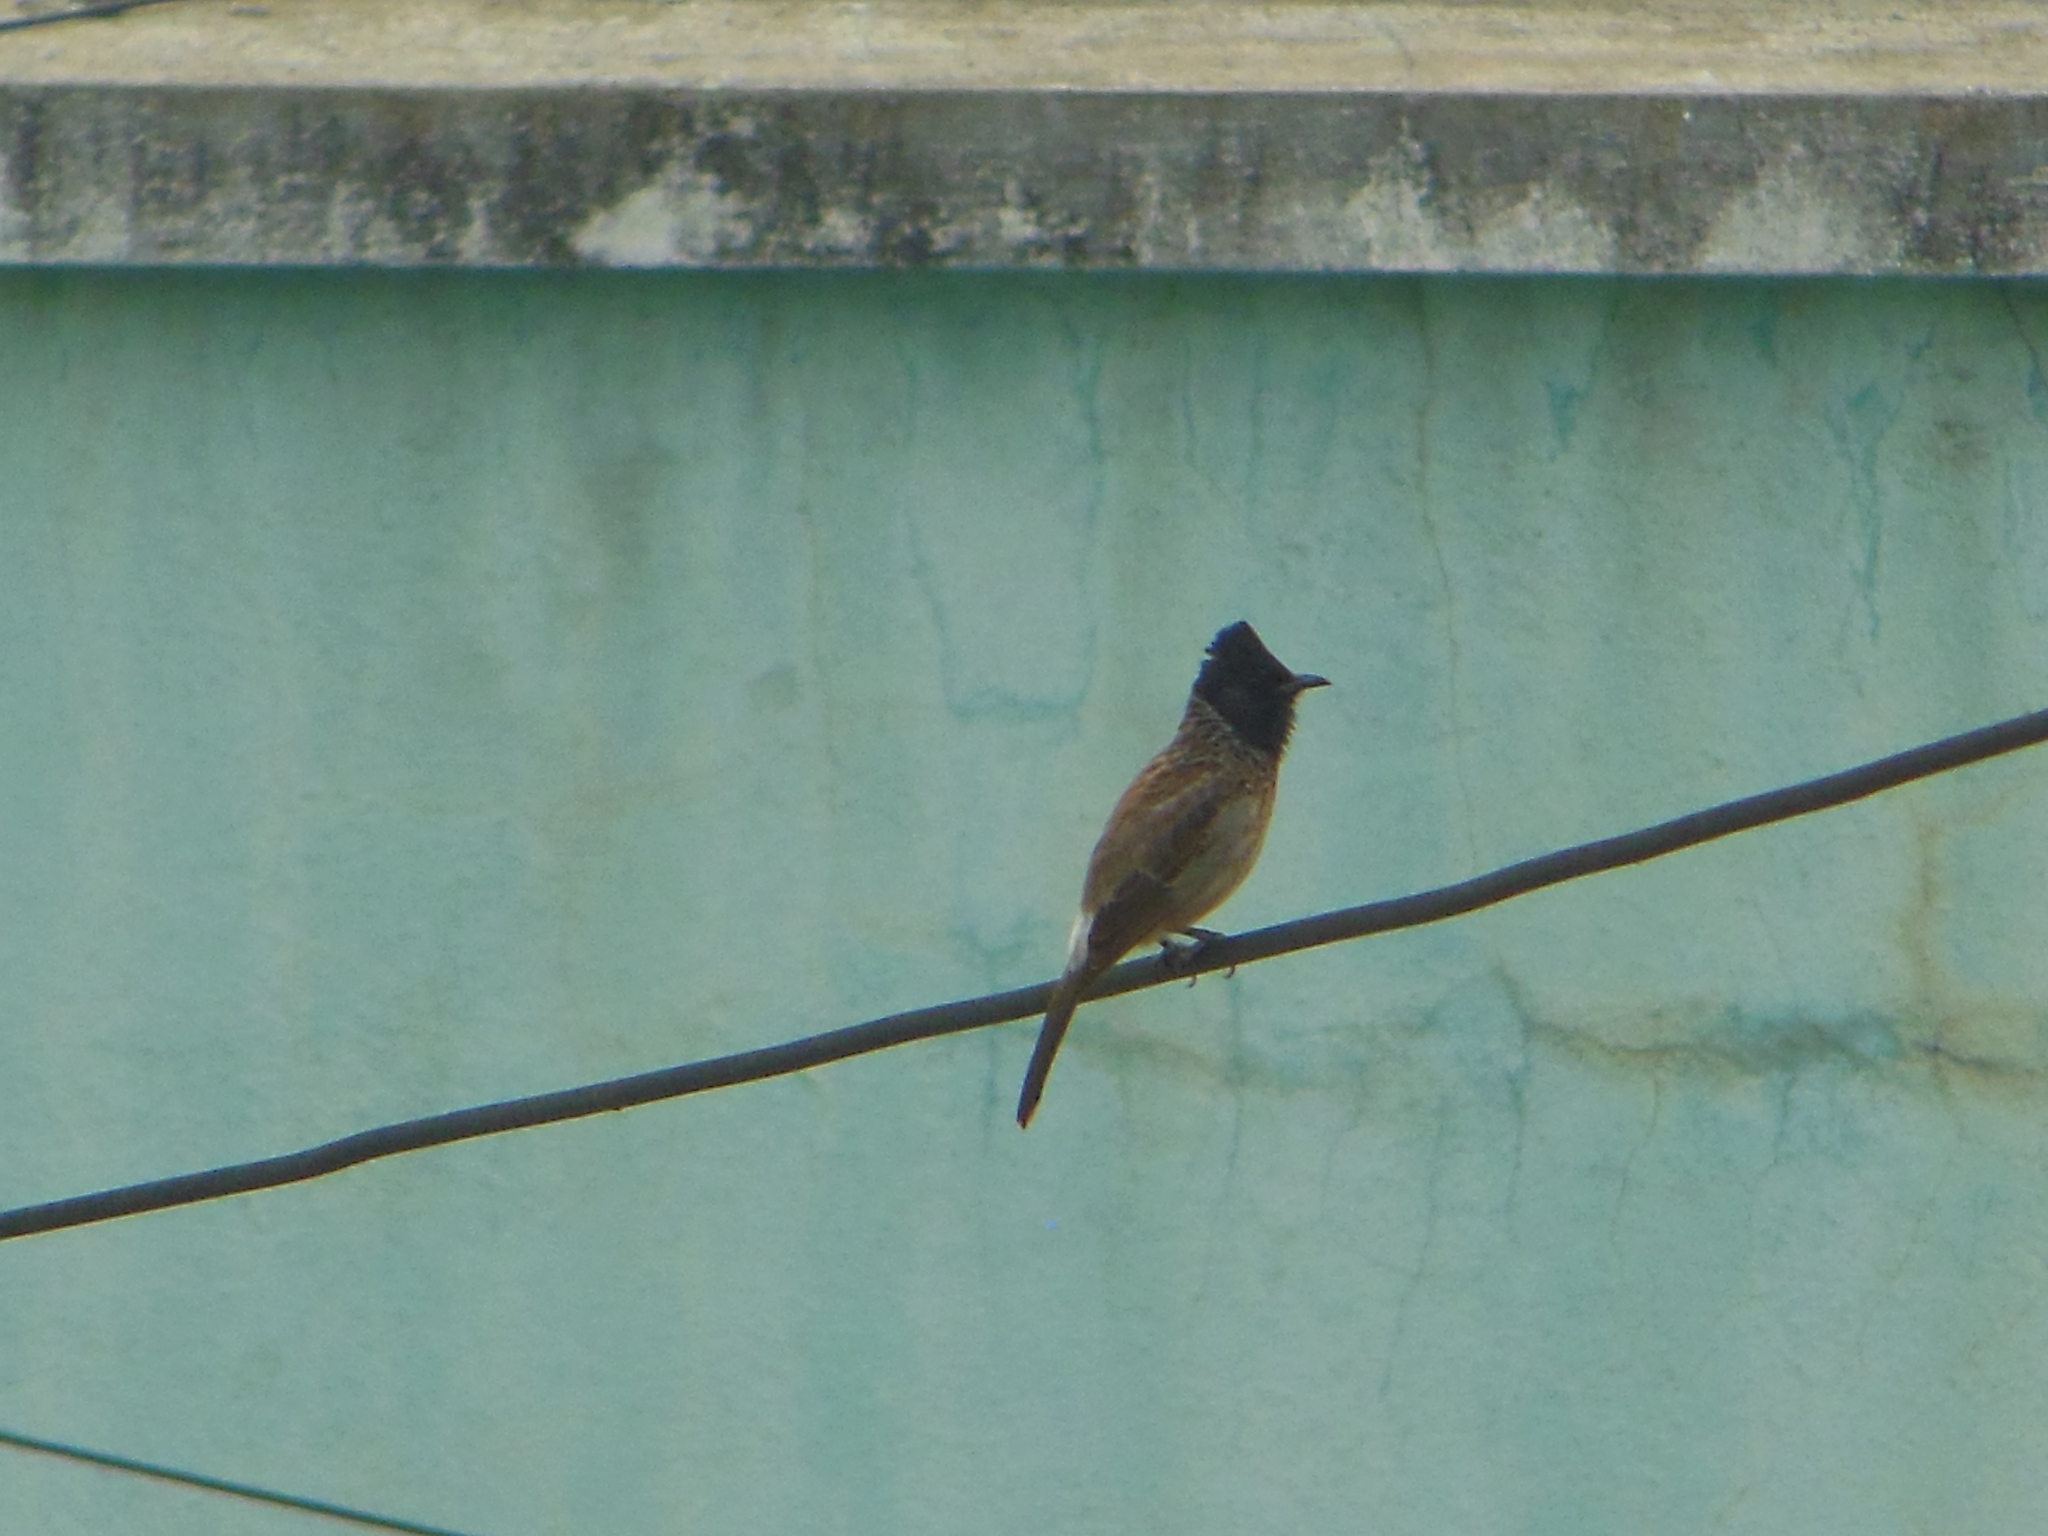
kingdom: Animalia
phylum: Chordata
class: Aves
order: Passeriformes
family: Pycnonotidae
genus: Pycnonotus
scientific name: Pycnonotus cafer
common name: Red-vented bulbul
